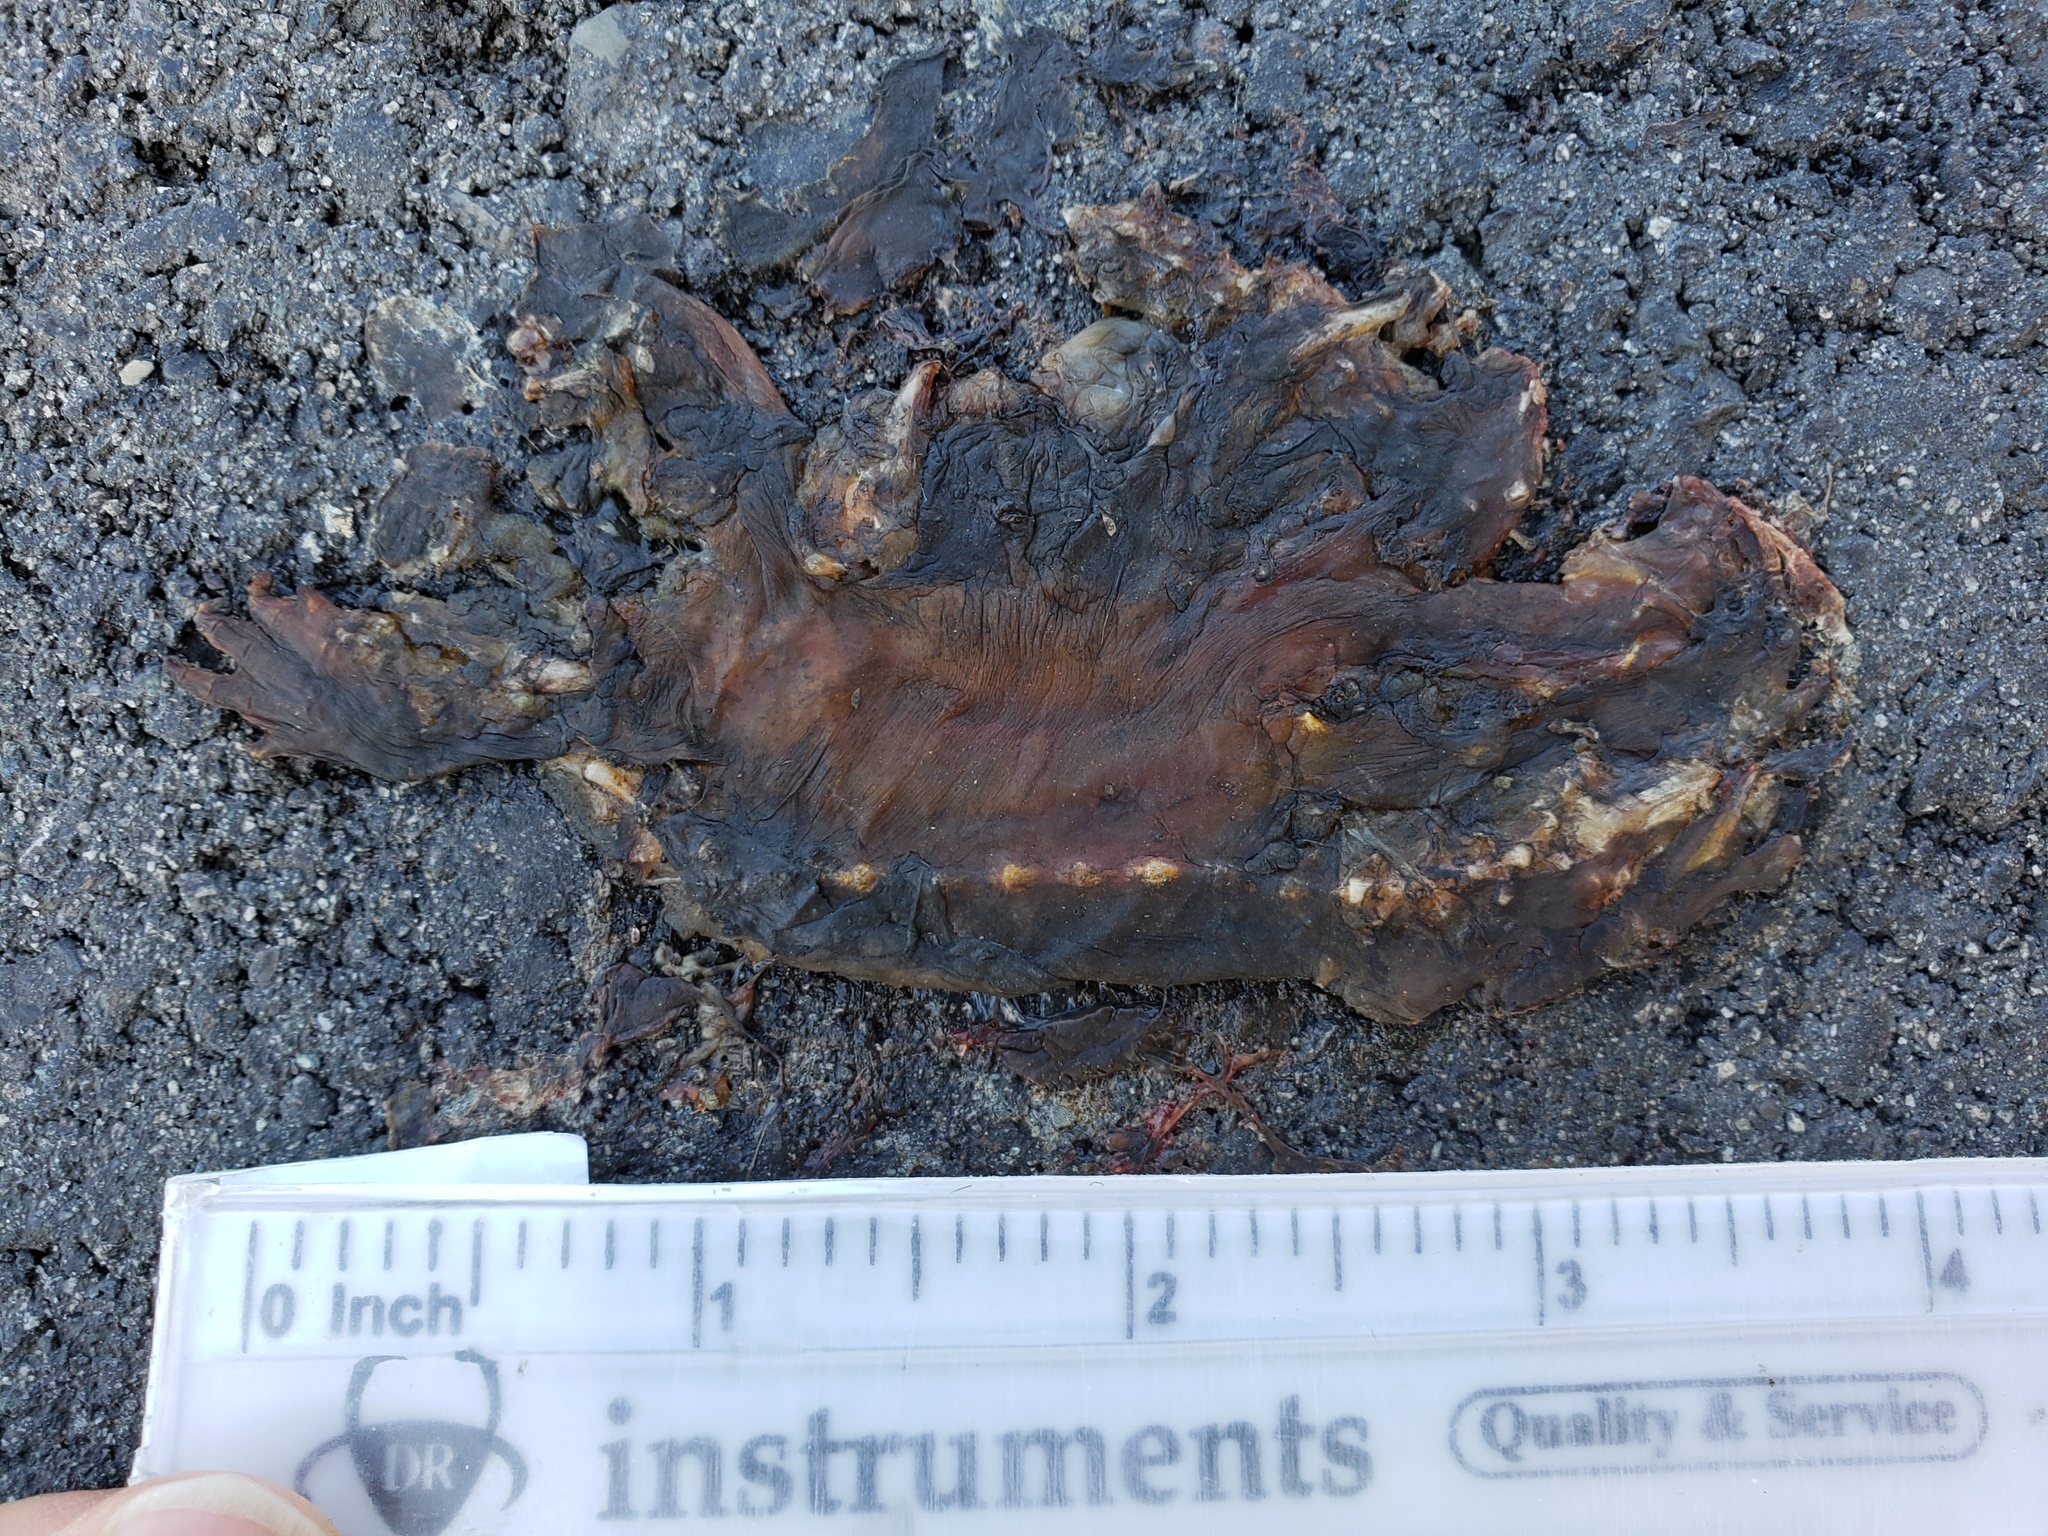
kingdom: Animalia
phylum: Chordata
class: Amphibia
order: Caudata
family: Salamandridae
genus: Taricha
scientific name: Taricha
